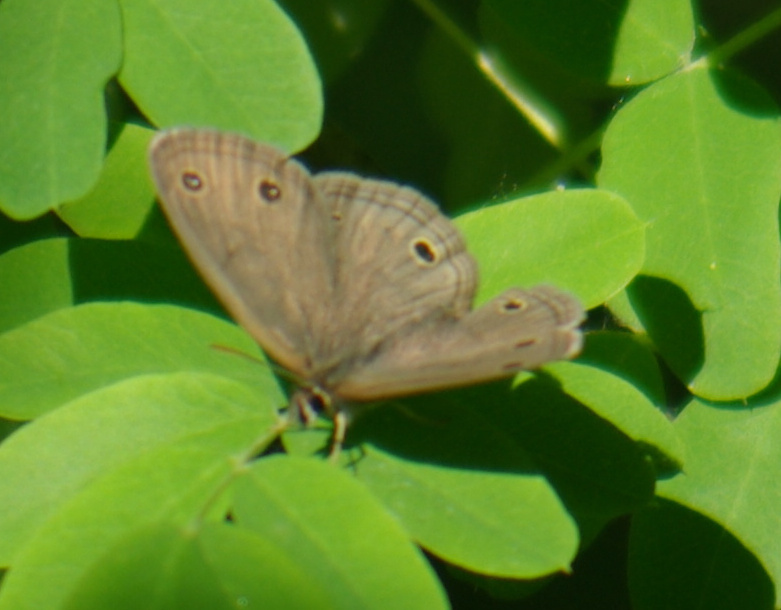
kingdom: Animalia
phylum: Arthropoda
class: Insecta
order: Lepidoptera
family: Nymphalidae
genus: Euptychia
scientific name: Euptychia cymela
